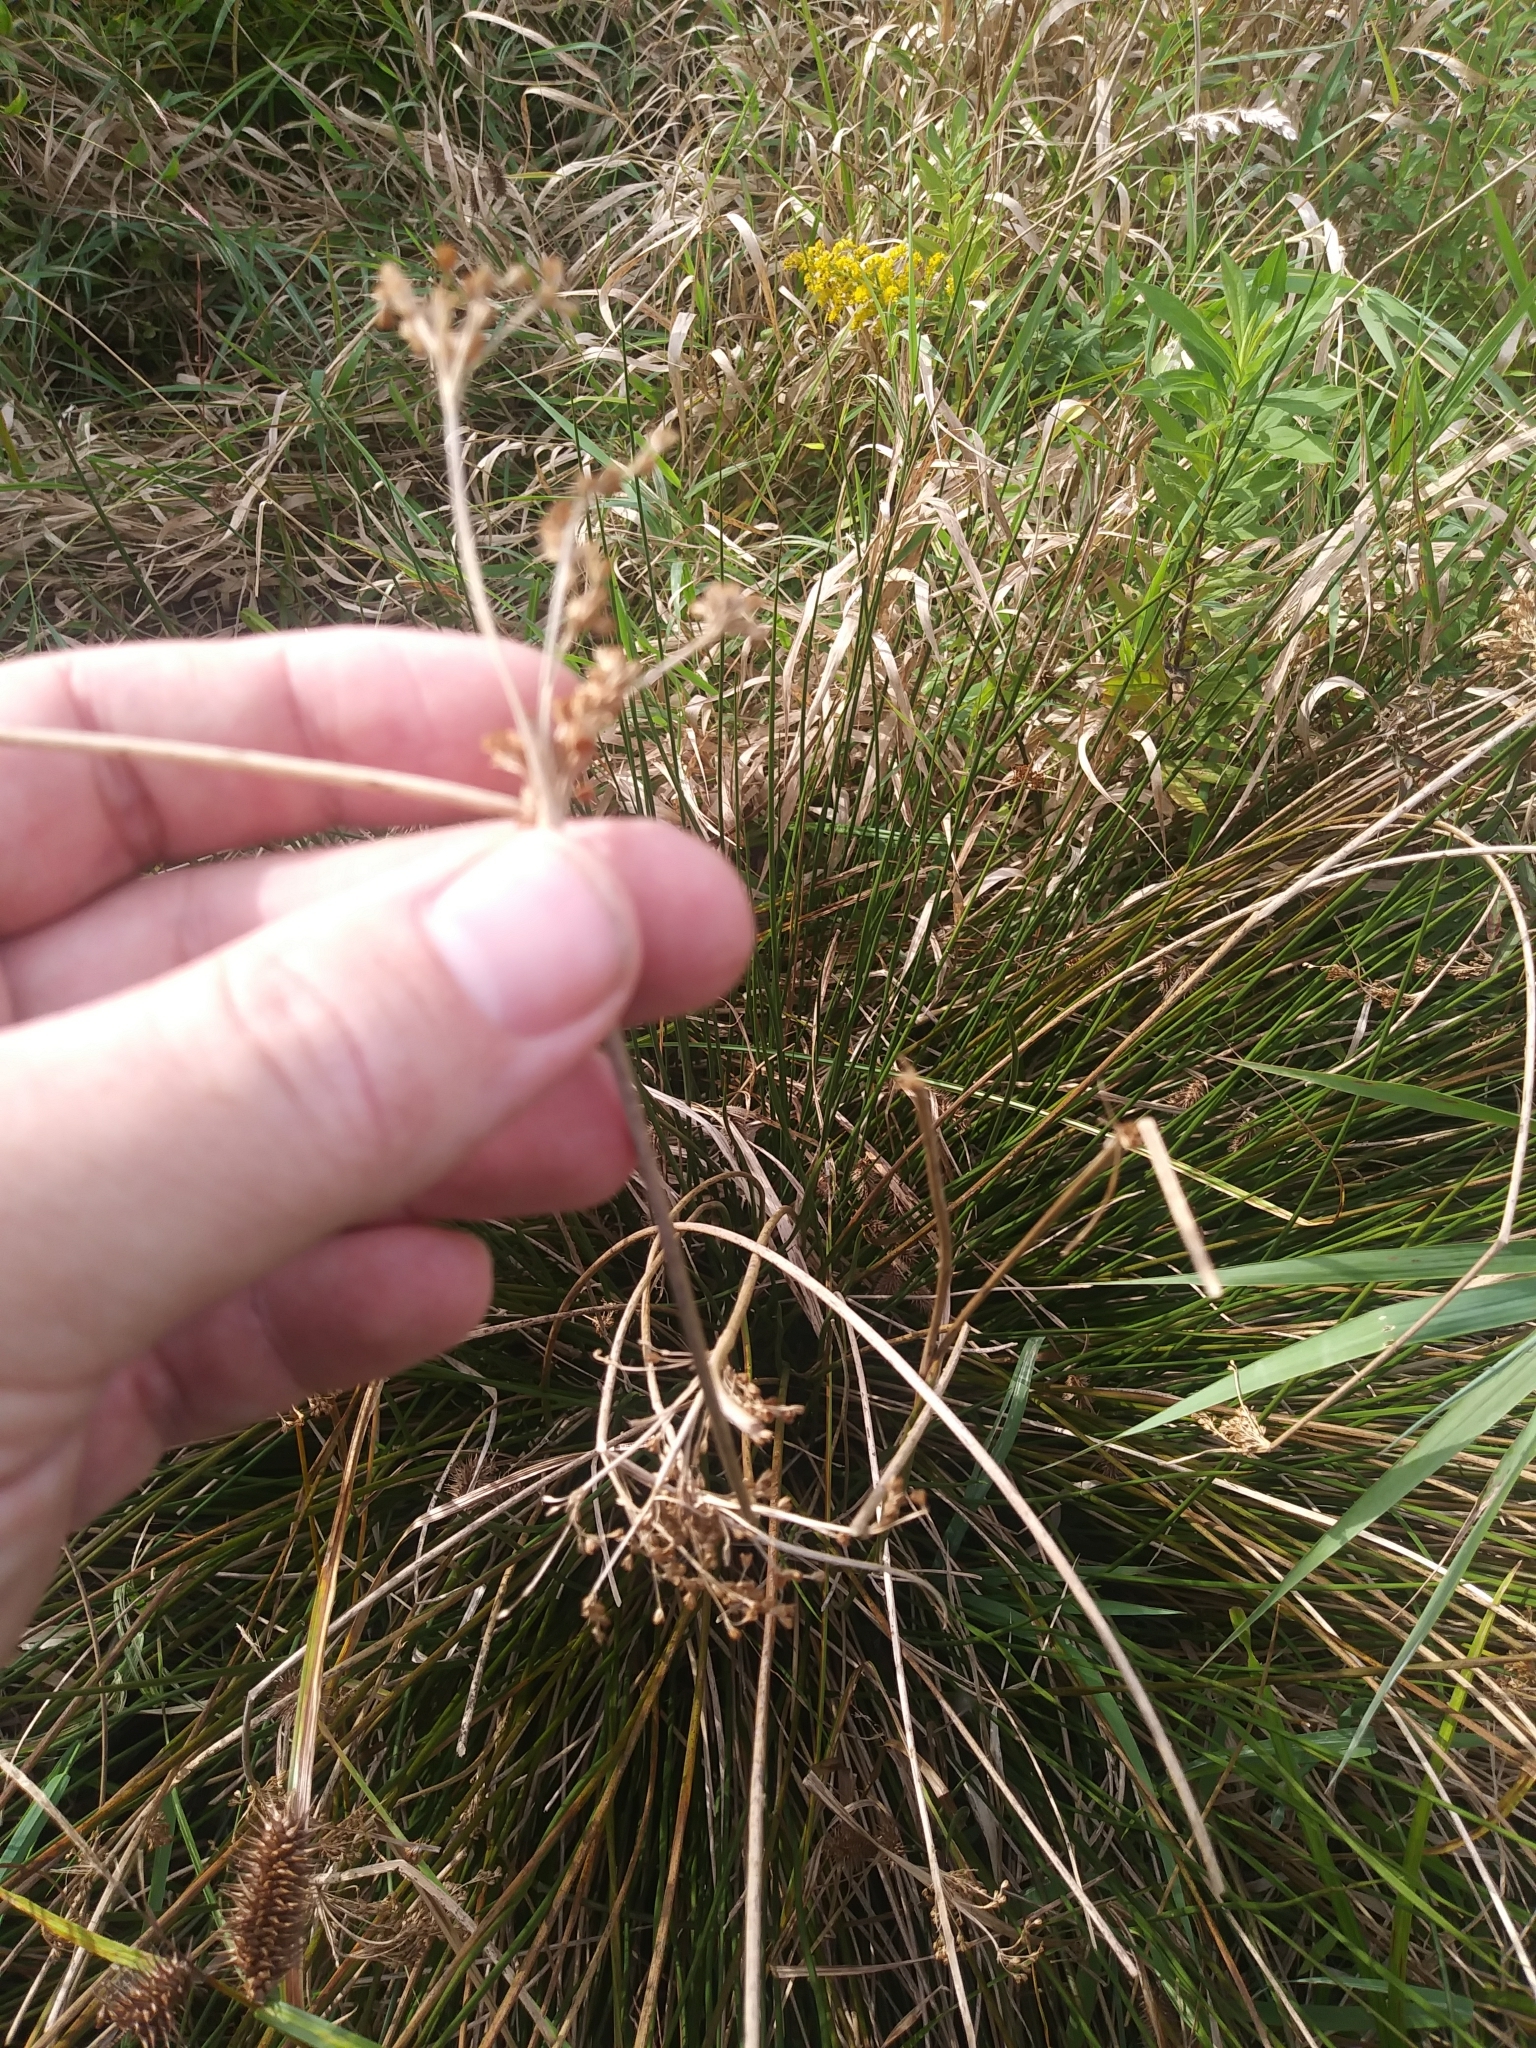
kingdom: Plantae
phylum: Tracheophyta
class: Liliopsida
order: Poales
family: Juncaceae
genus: Juncus
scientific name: Juncus effusus
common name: Soft rush
